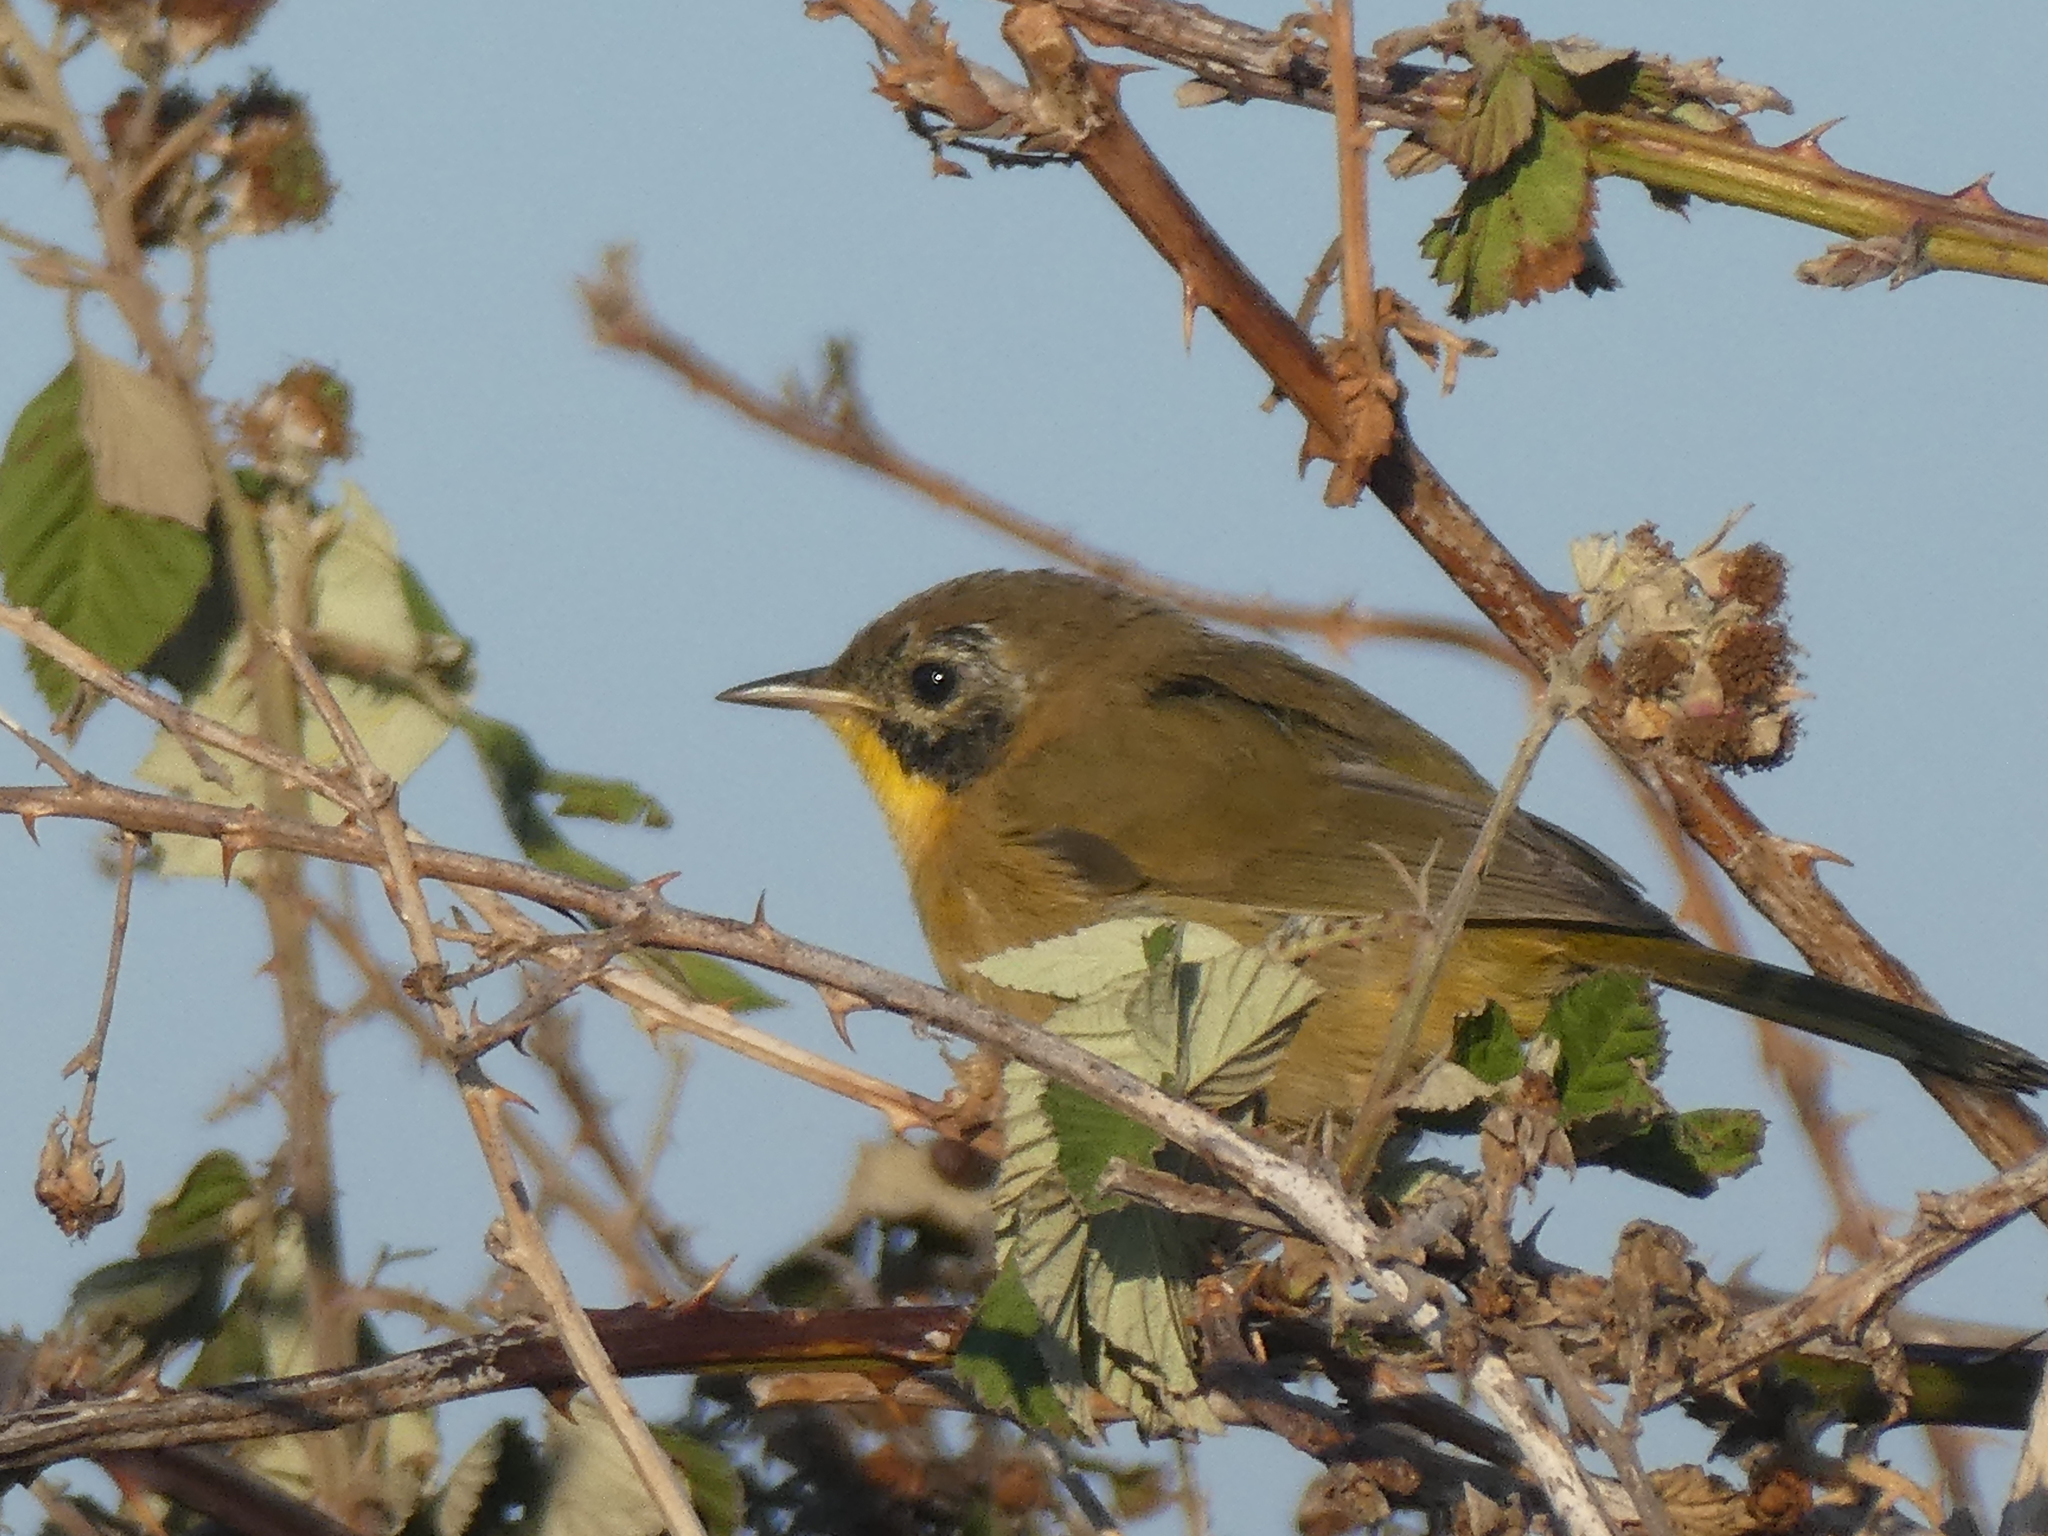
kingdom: Animalia
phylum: Chordata
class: Aves
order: Passeriformes
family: Parulidae
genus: Geothlypis
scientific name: Geothlypis trichas
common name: Common yellowthroat
